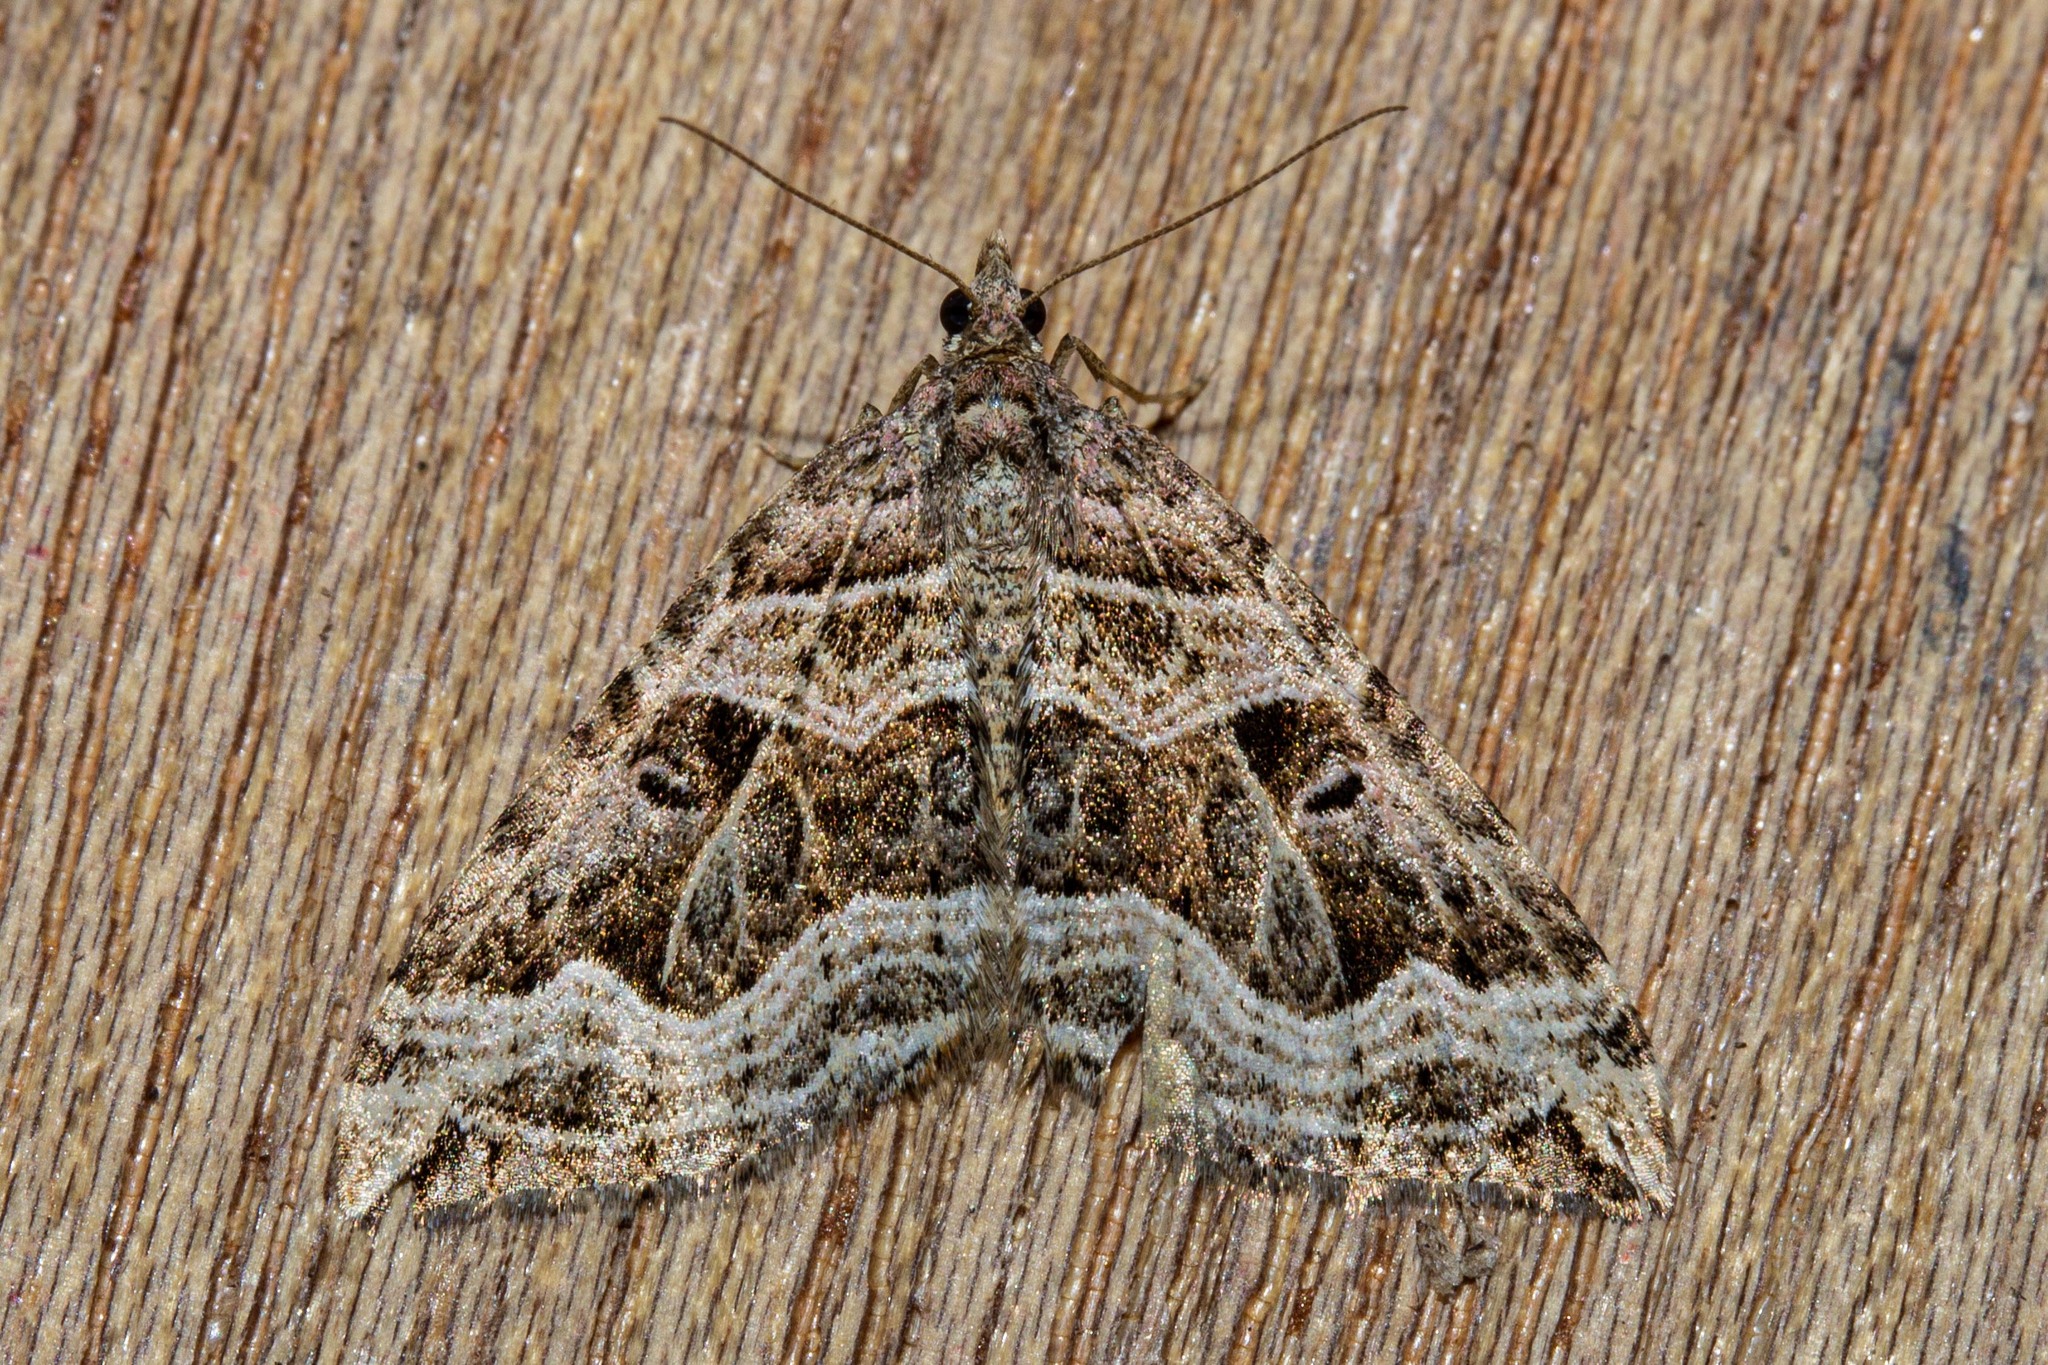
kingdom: Animalia
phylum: Arthropoda
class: Insecta
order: Lepidoptera
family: Geometridae
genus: Xanthorhoe
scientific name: Xanthorhoe semifissata
